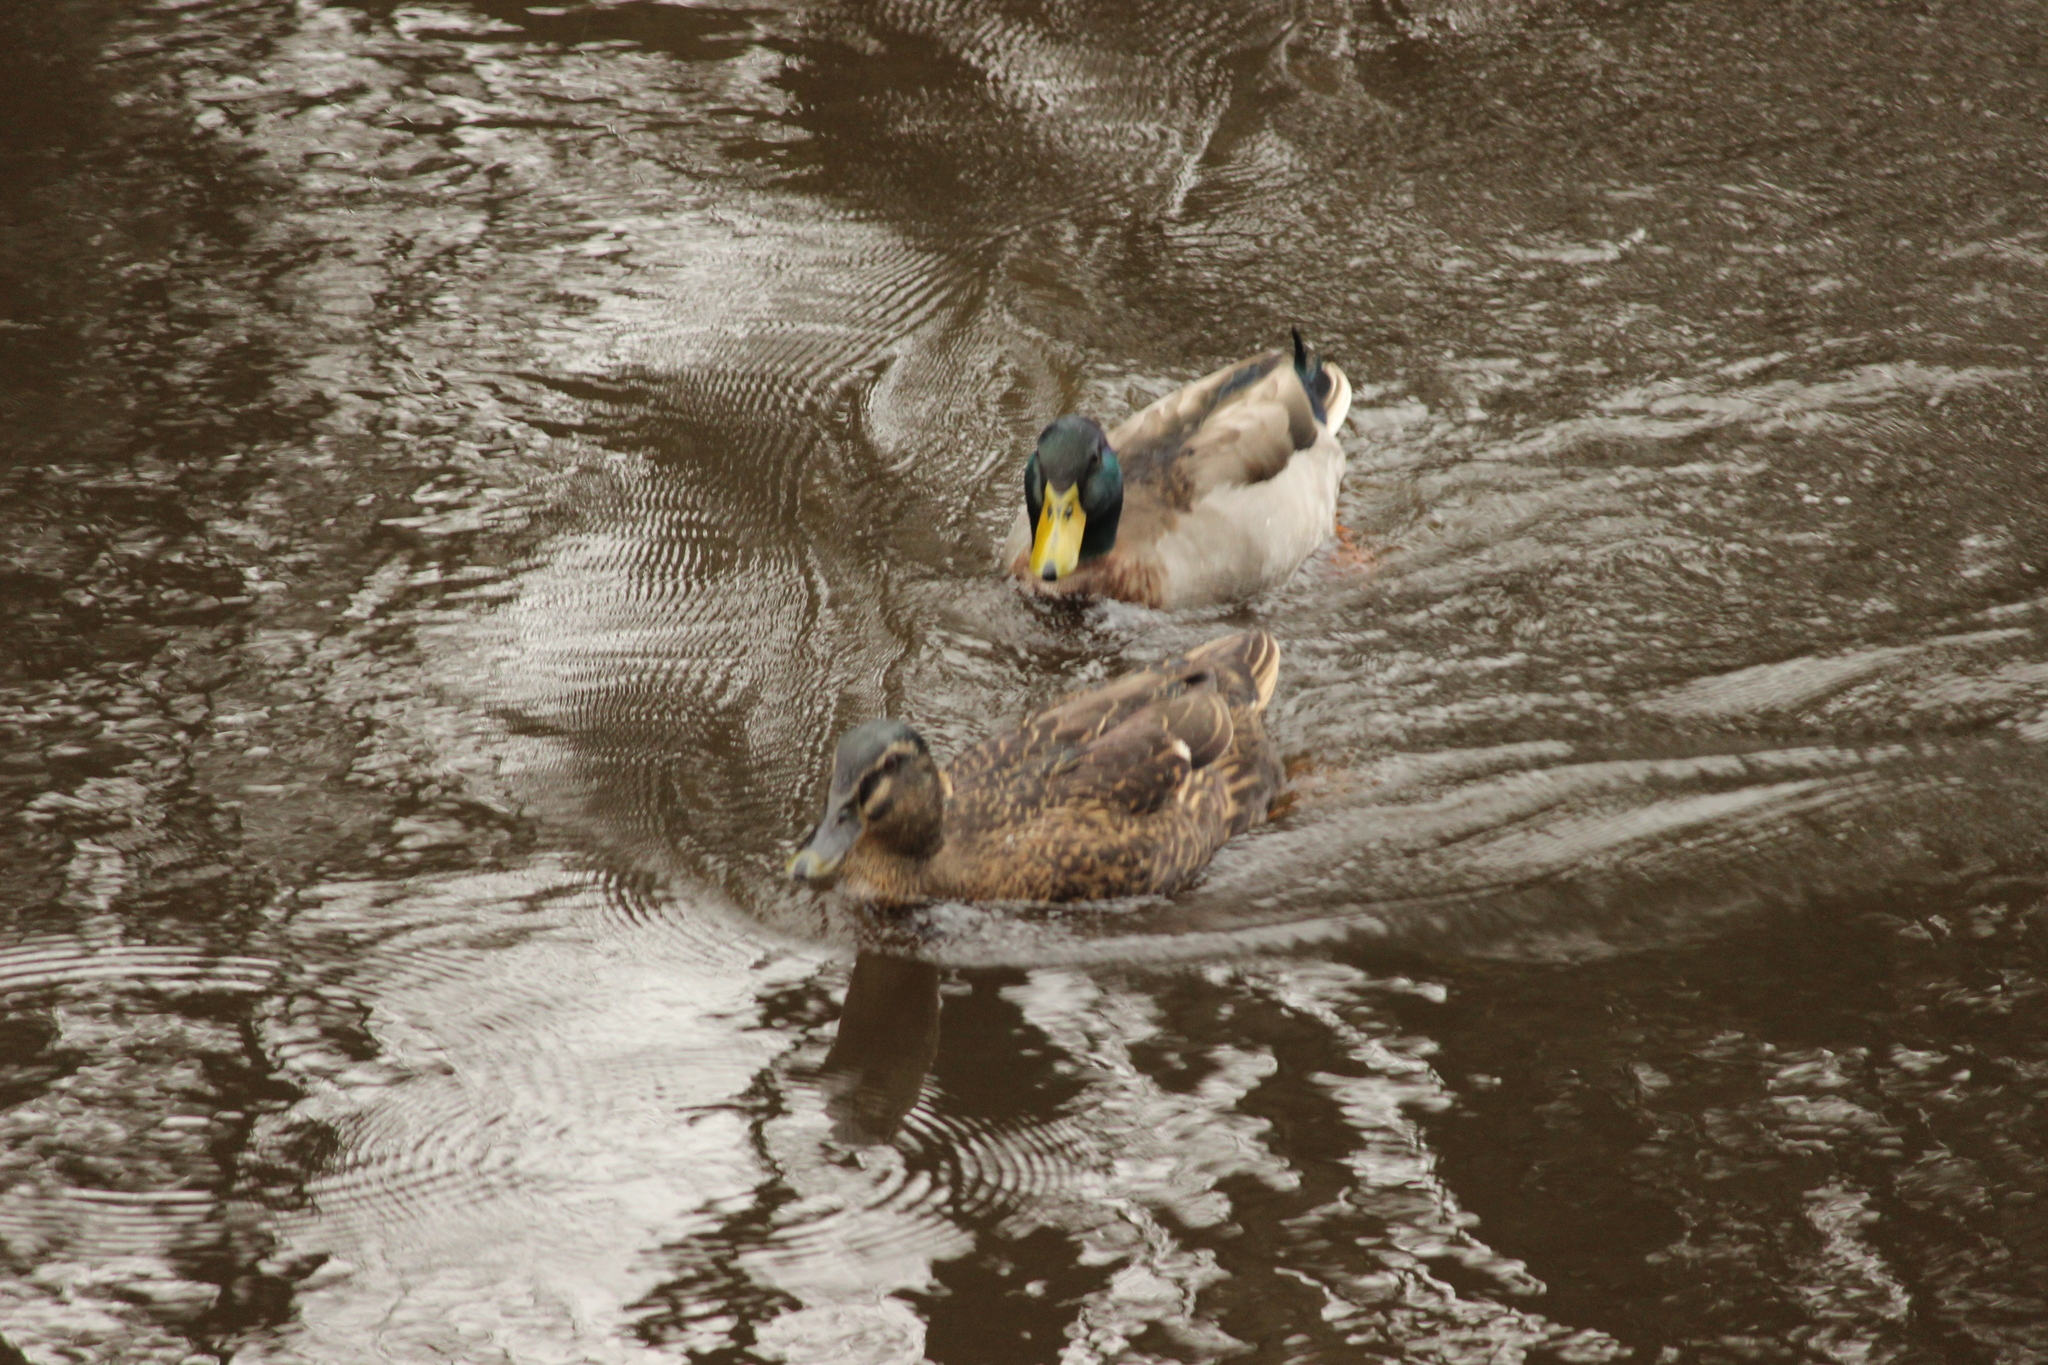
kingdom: Animalia
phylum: Chordata
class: Aves
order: Anseriformes
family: Anatidae
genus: Anas
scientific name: Anas platyrhynchos
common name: Mallard
